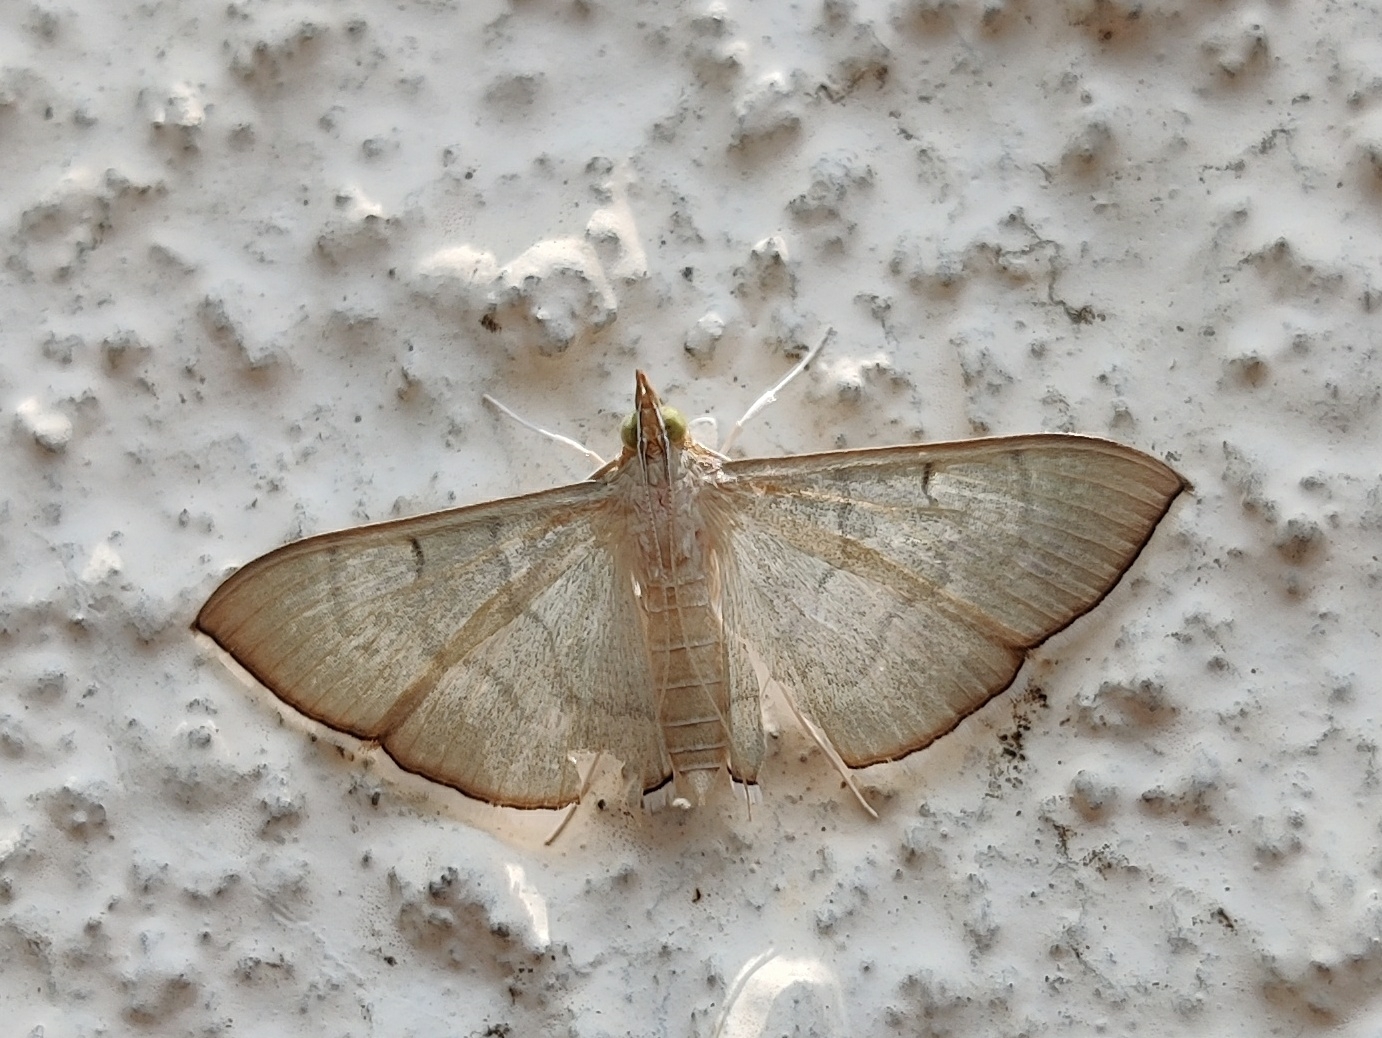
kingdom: Animalia
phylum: Arthropoda
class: Insecta
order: Lepidoptera
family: Crambidae
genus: Lamprophaia
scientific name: Lamprophaia ablactalis
